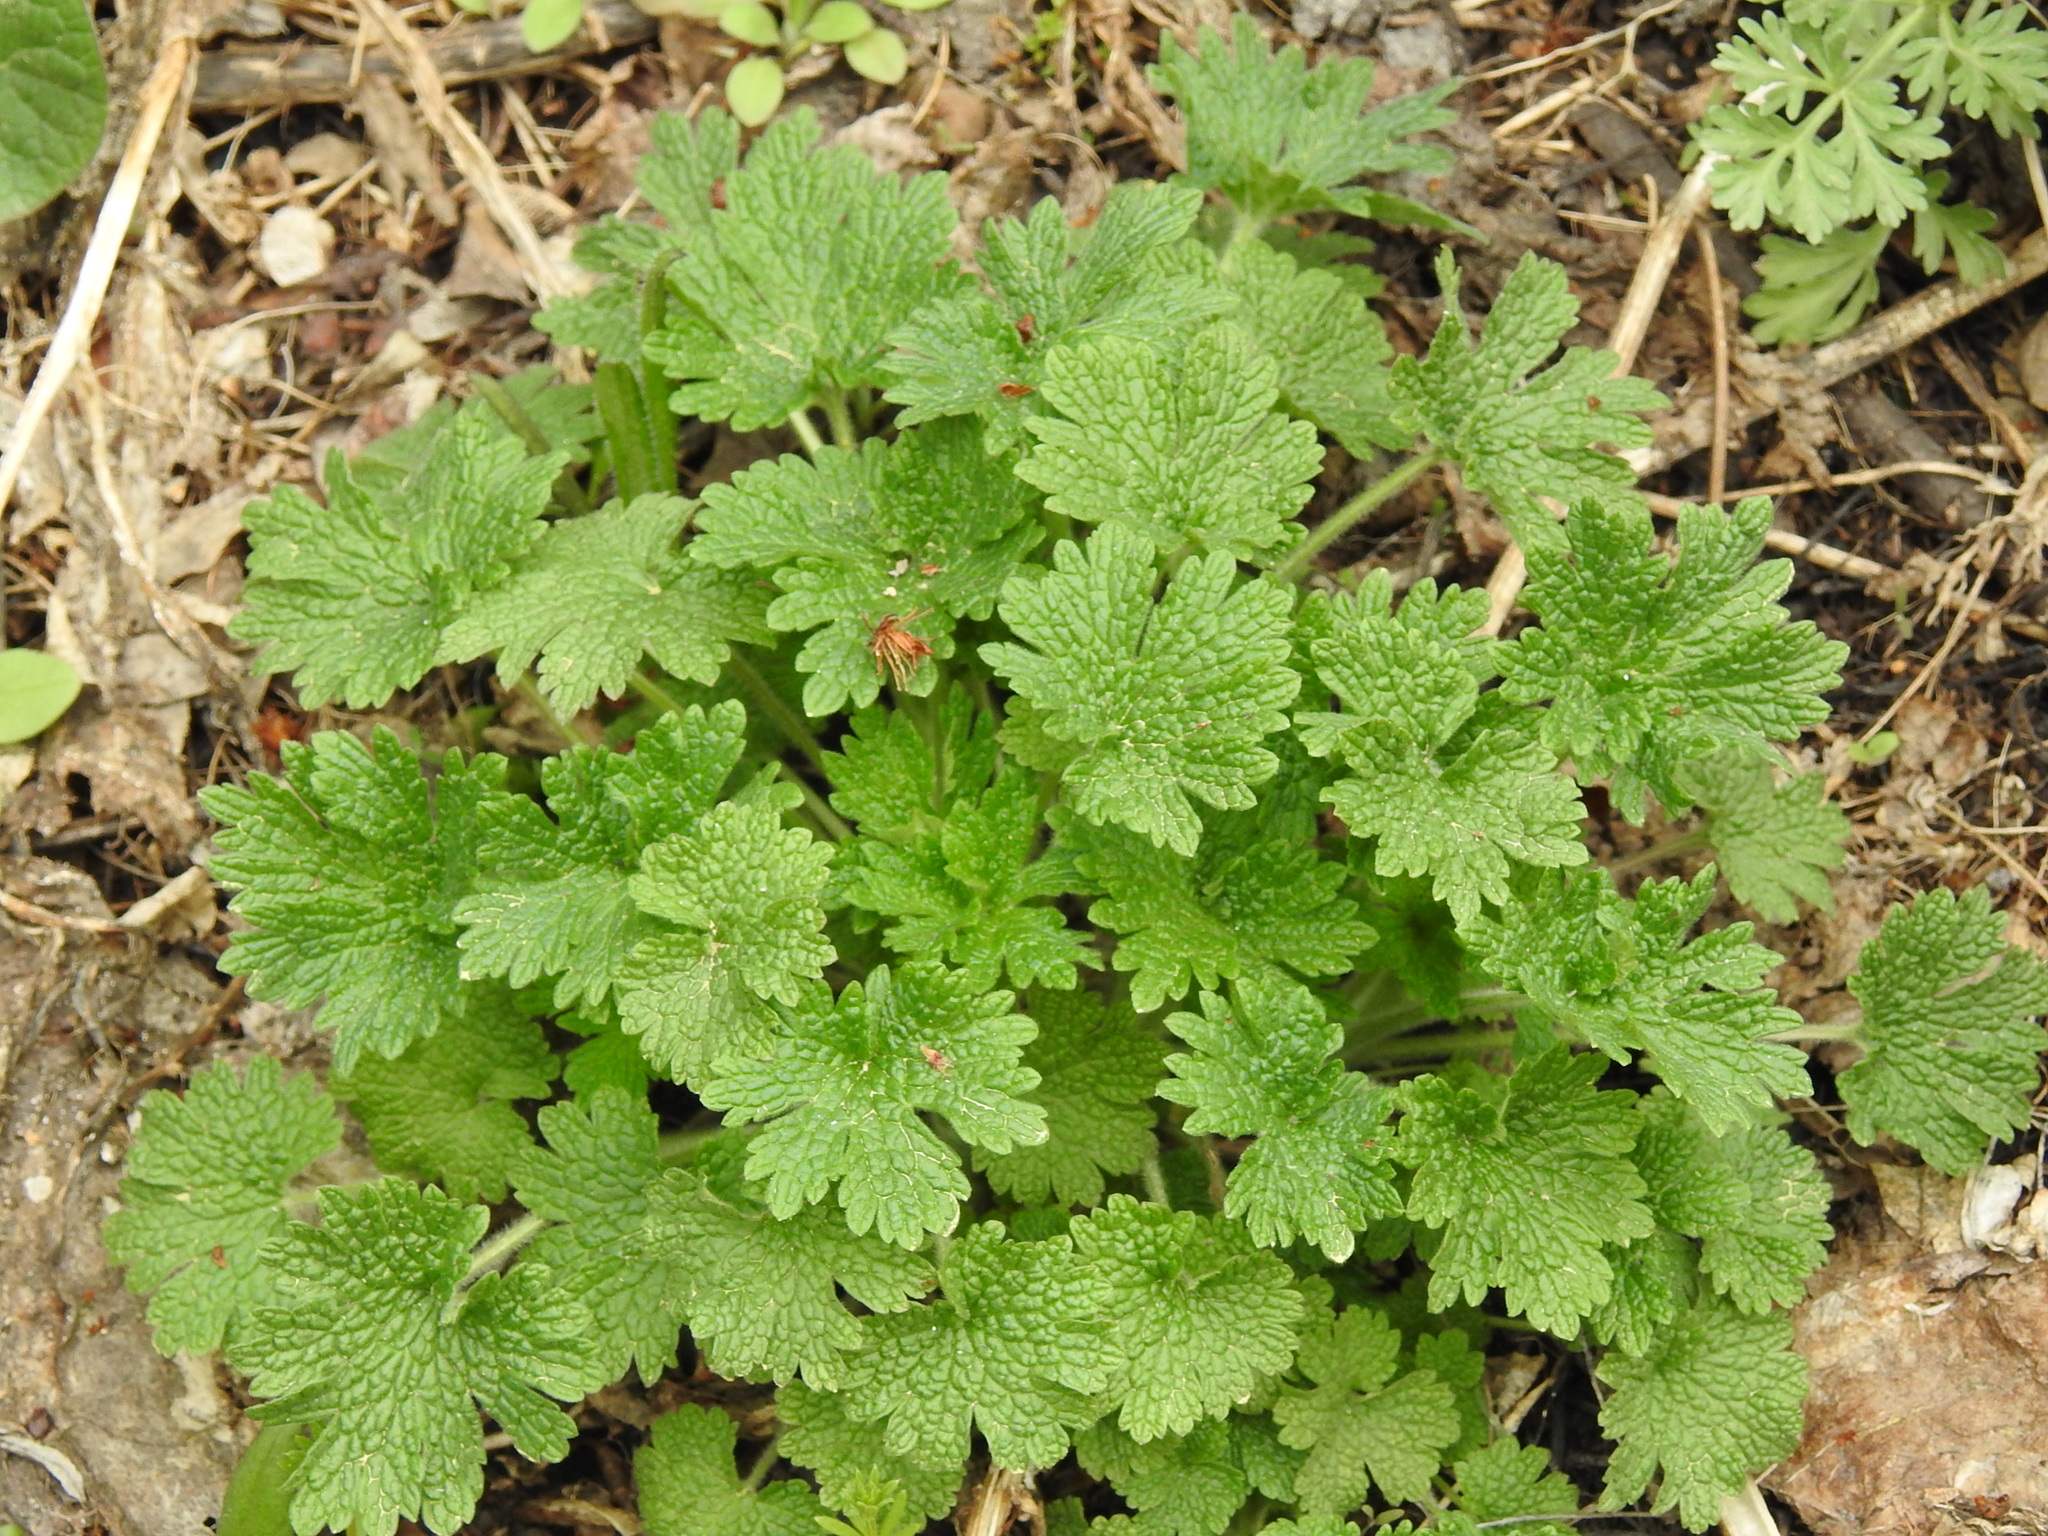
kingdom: Plantae
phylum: Tracheophyta
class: Magnoliopsida
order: Lamiales
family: Lamiaceae
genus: Leonurus
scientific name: Leonurus quinquelobatus
